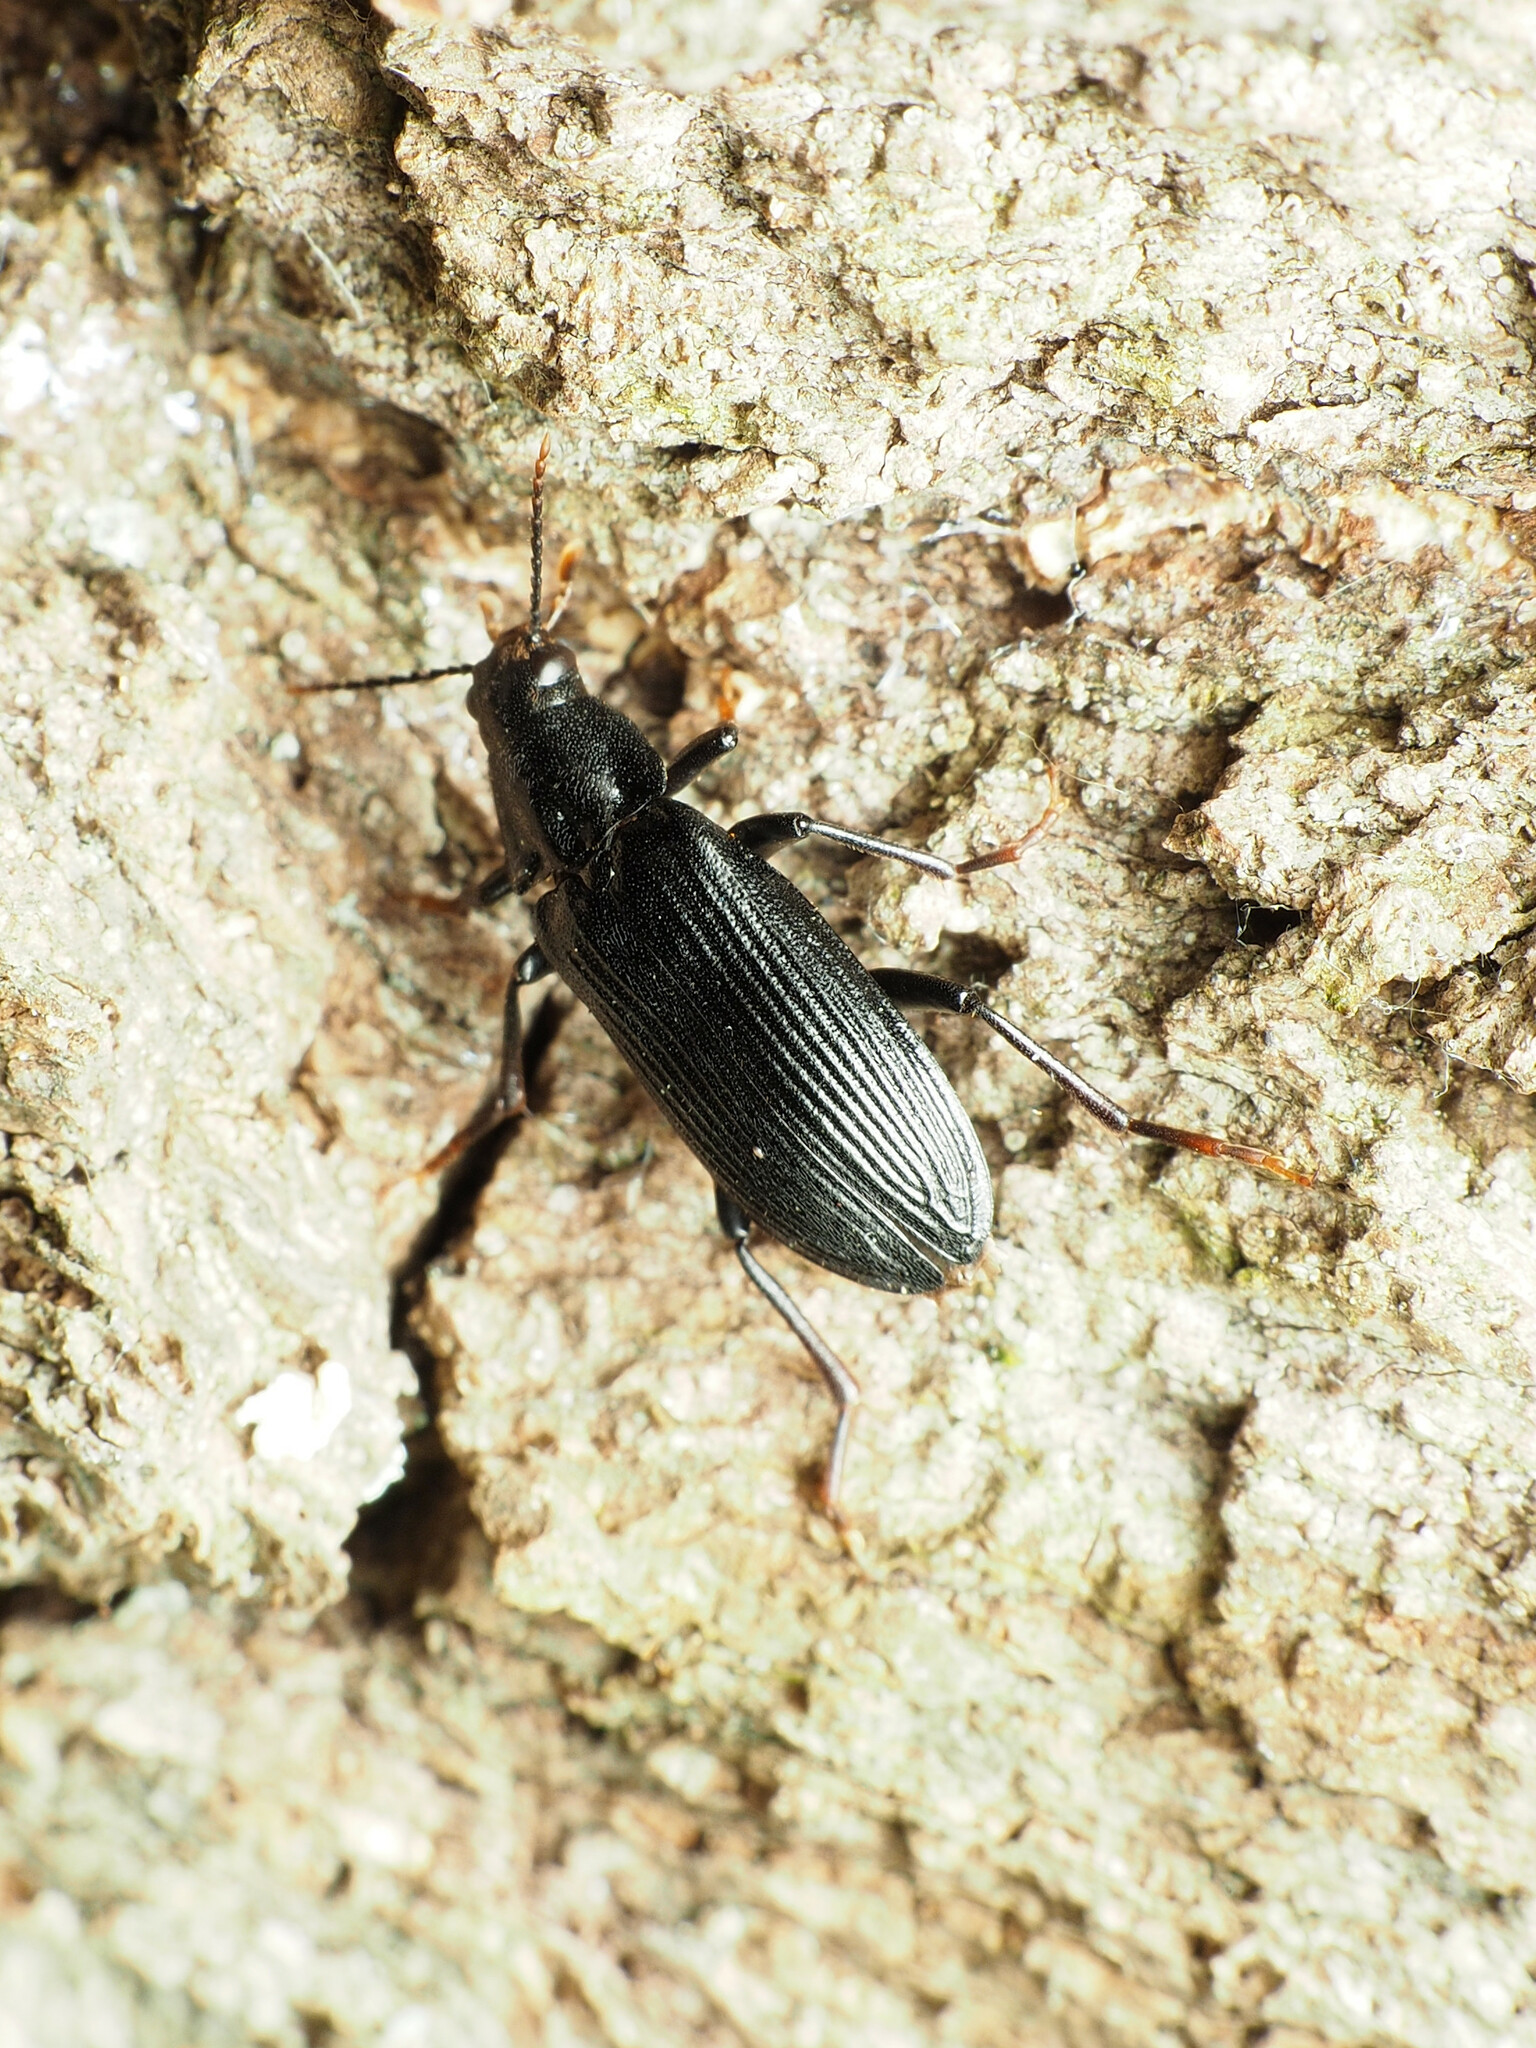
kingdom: Animalia
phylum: Arthropoda
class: Insecta
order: Coleoptera
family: Melandryidae
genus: Melandrya
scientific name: Melandrya striata
